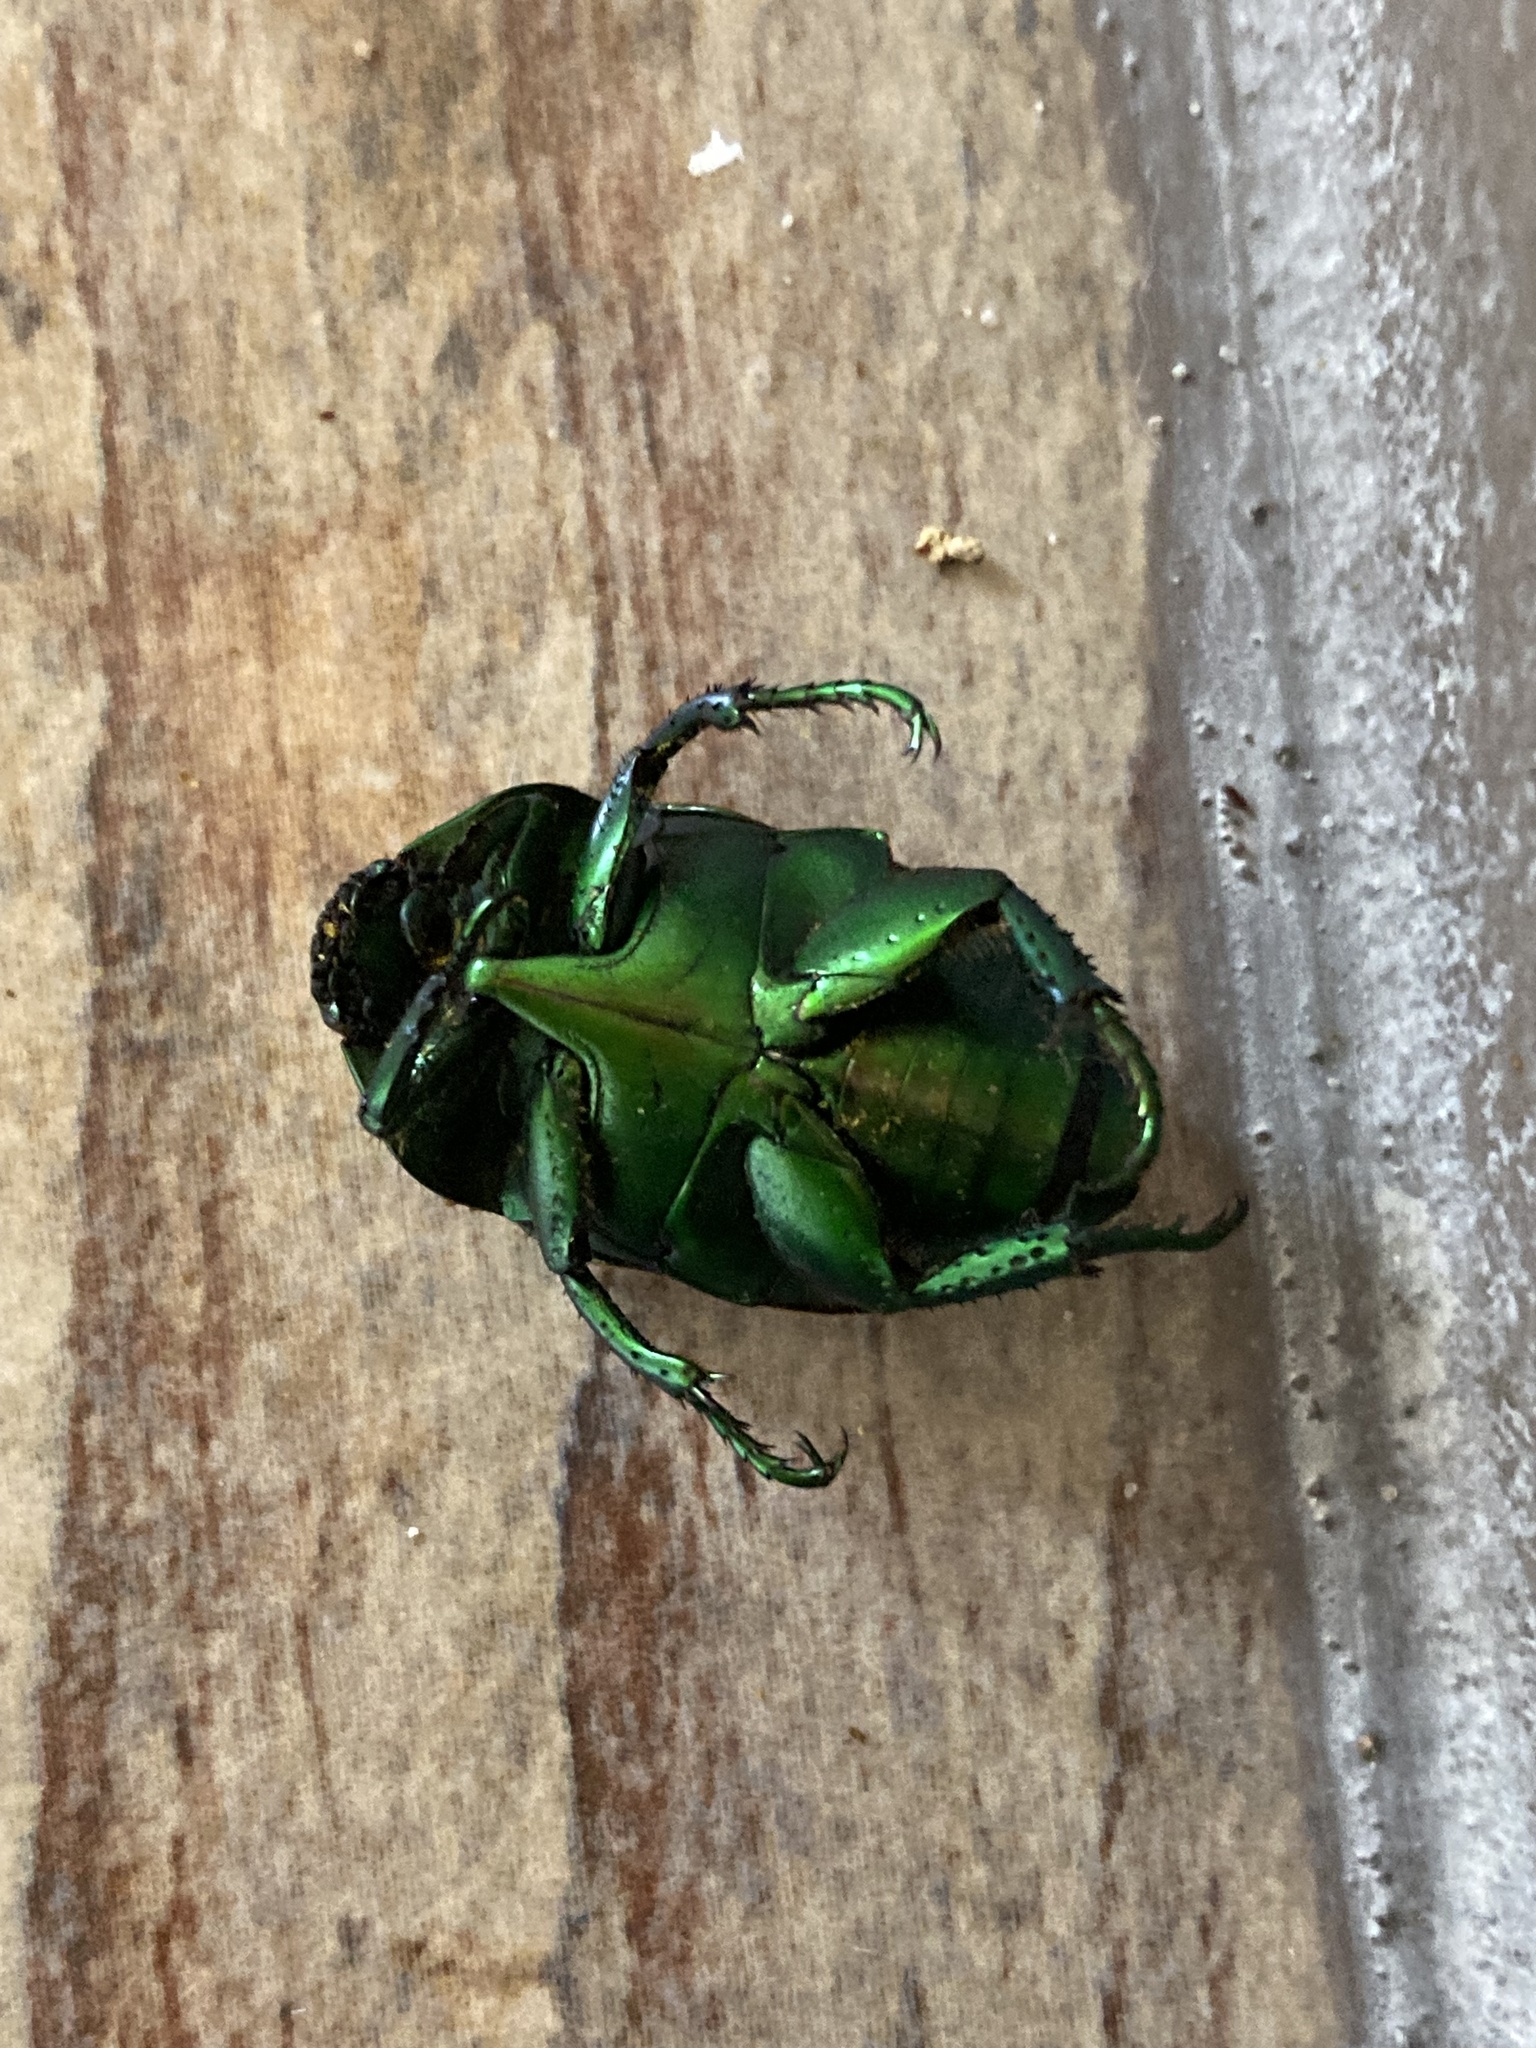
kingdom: Animalia
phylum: Arthropoda
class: Insecta
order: Coleoptera
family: Scarabaeidae
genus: Macraspis
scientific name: Macraspis festiva
